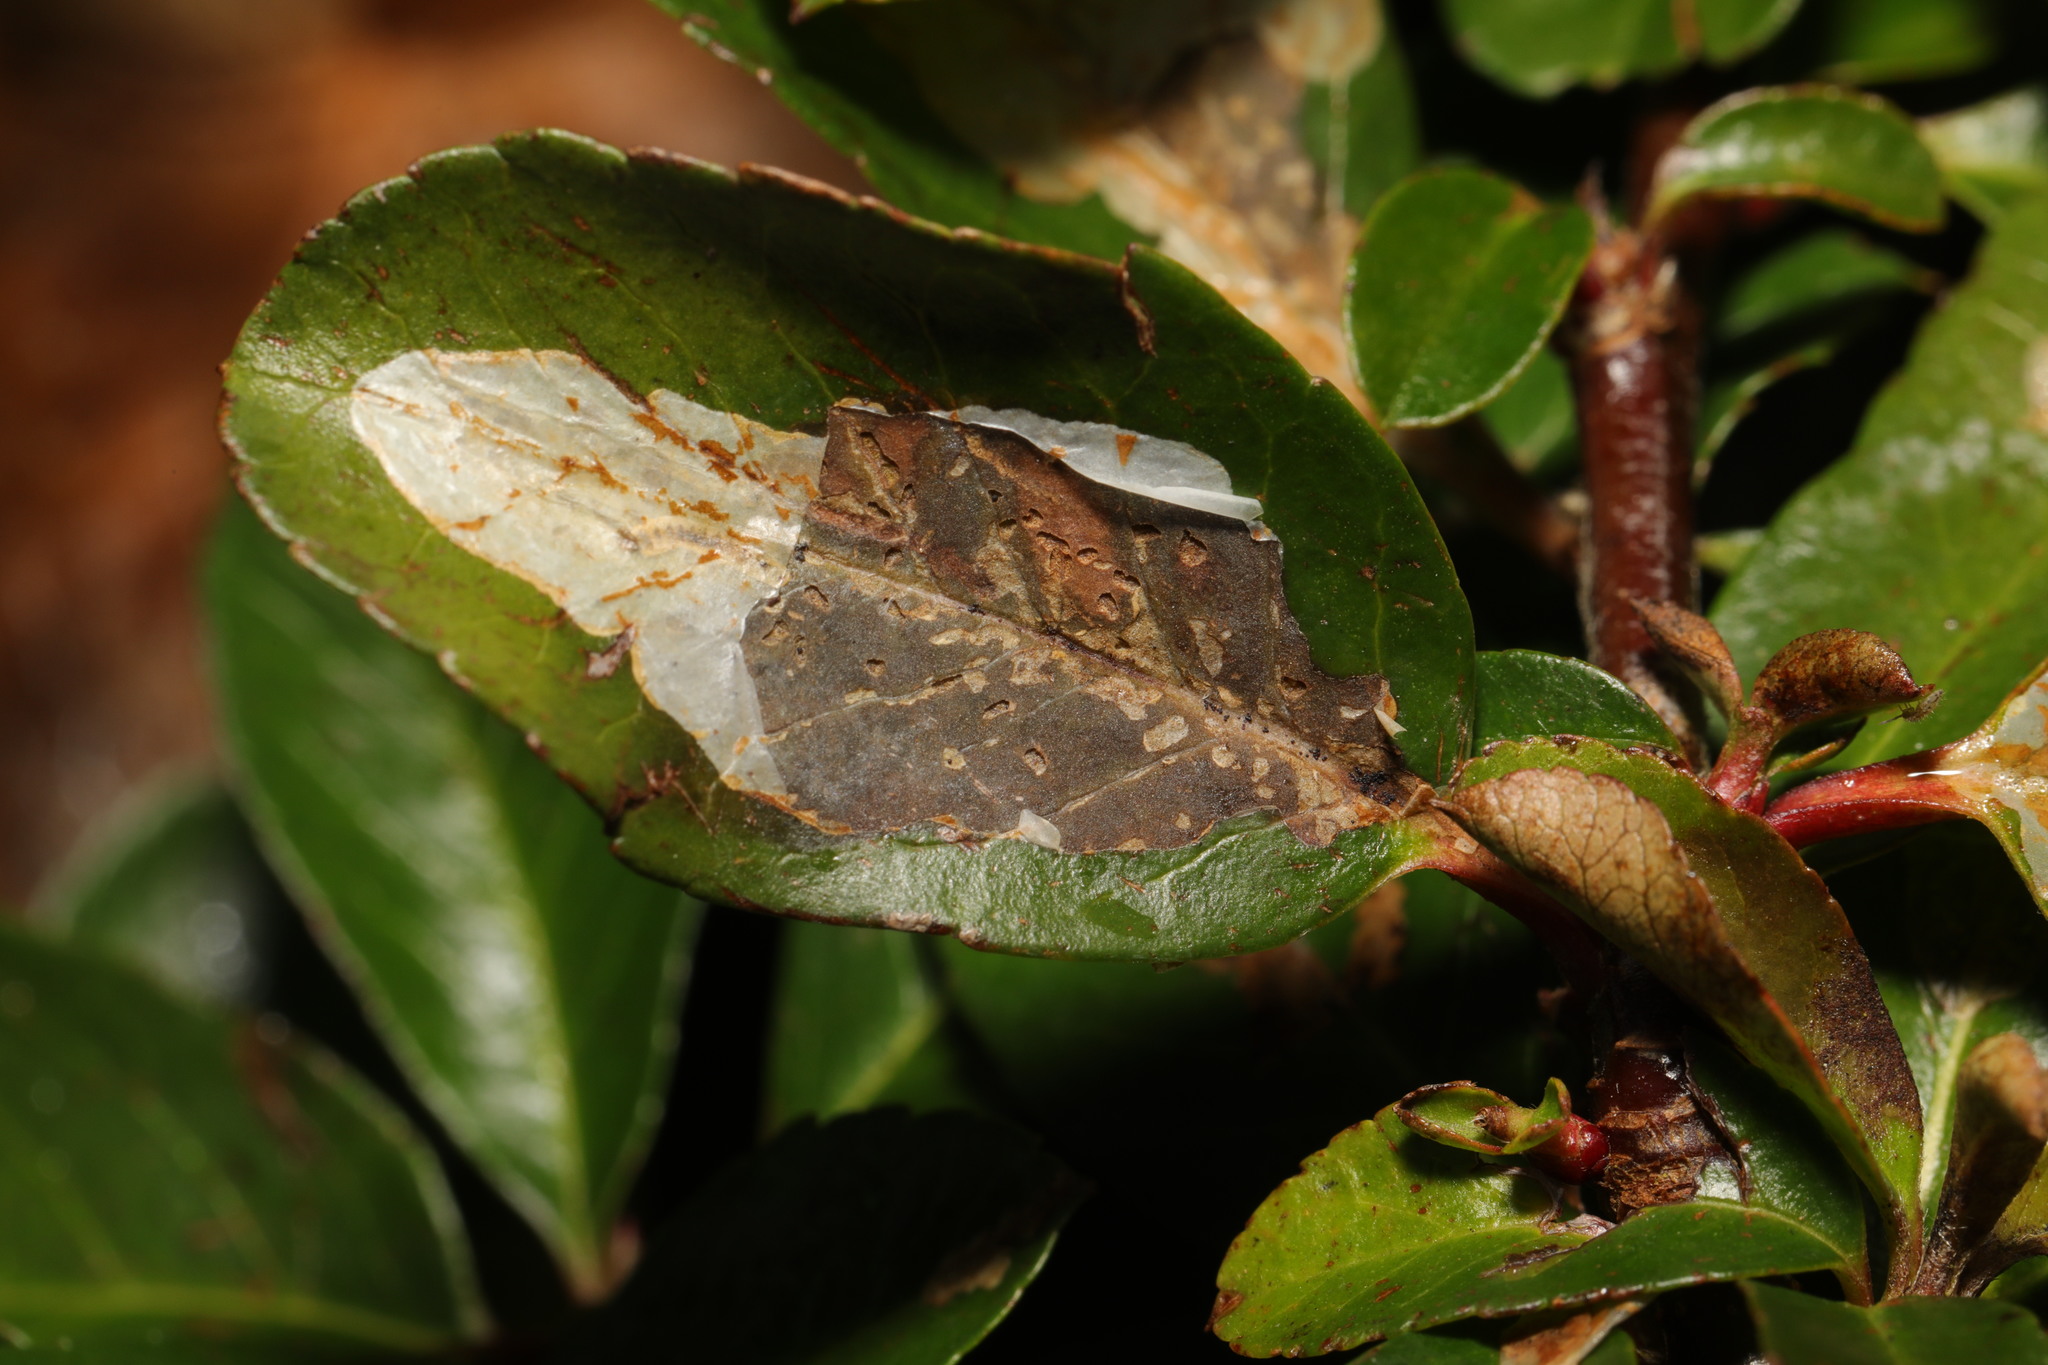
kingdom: Animalia
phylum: Arthropoda
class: Insecta
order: Lepidoptera
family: Gracillariidae
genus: Phyllonorycter
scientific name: Phyllonorycter leucographella
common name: Firethorn leaf-miner
